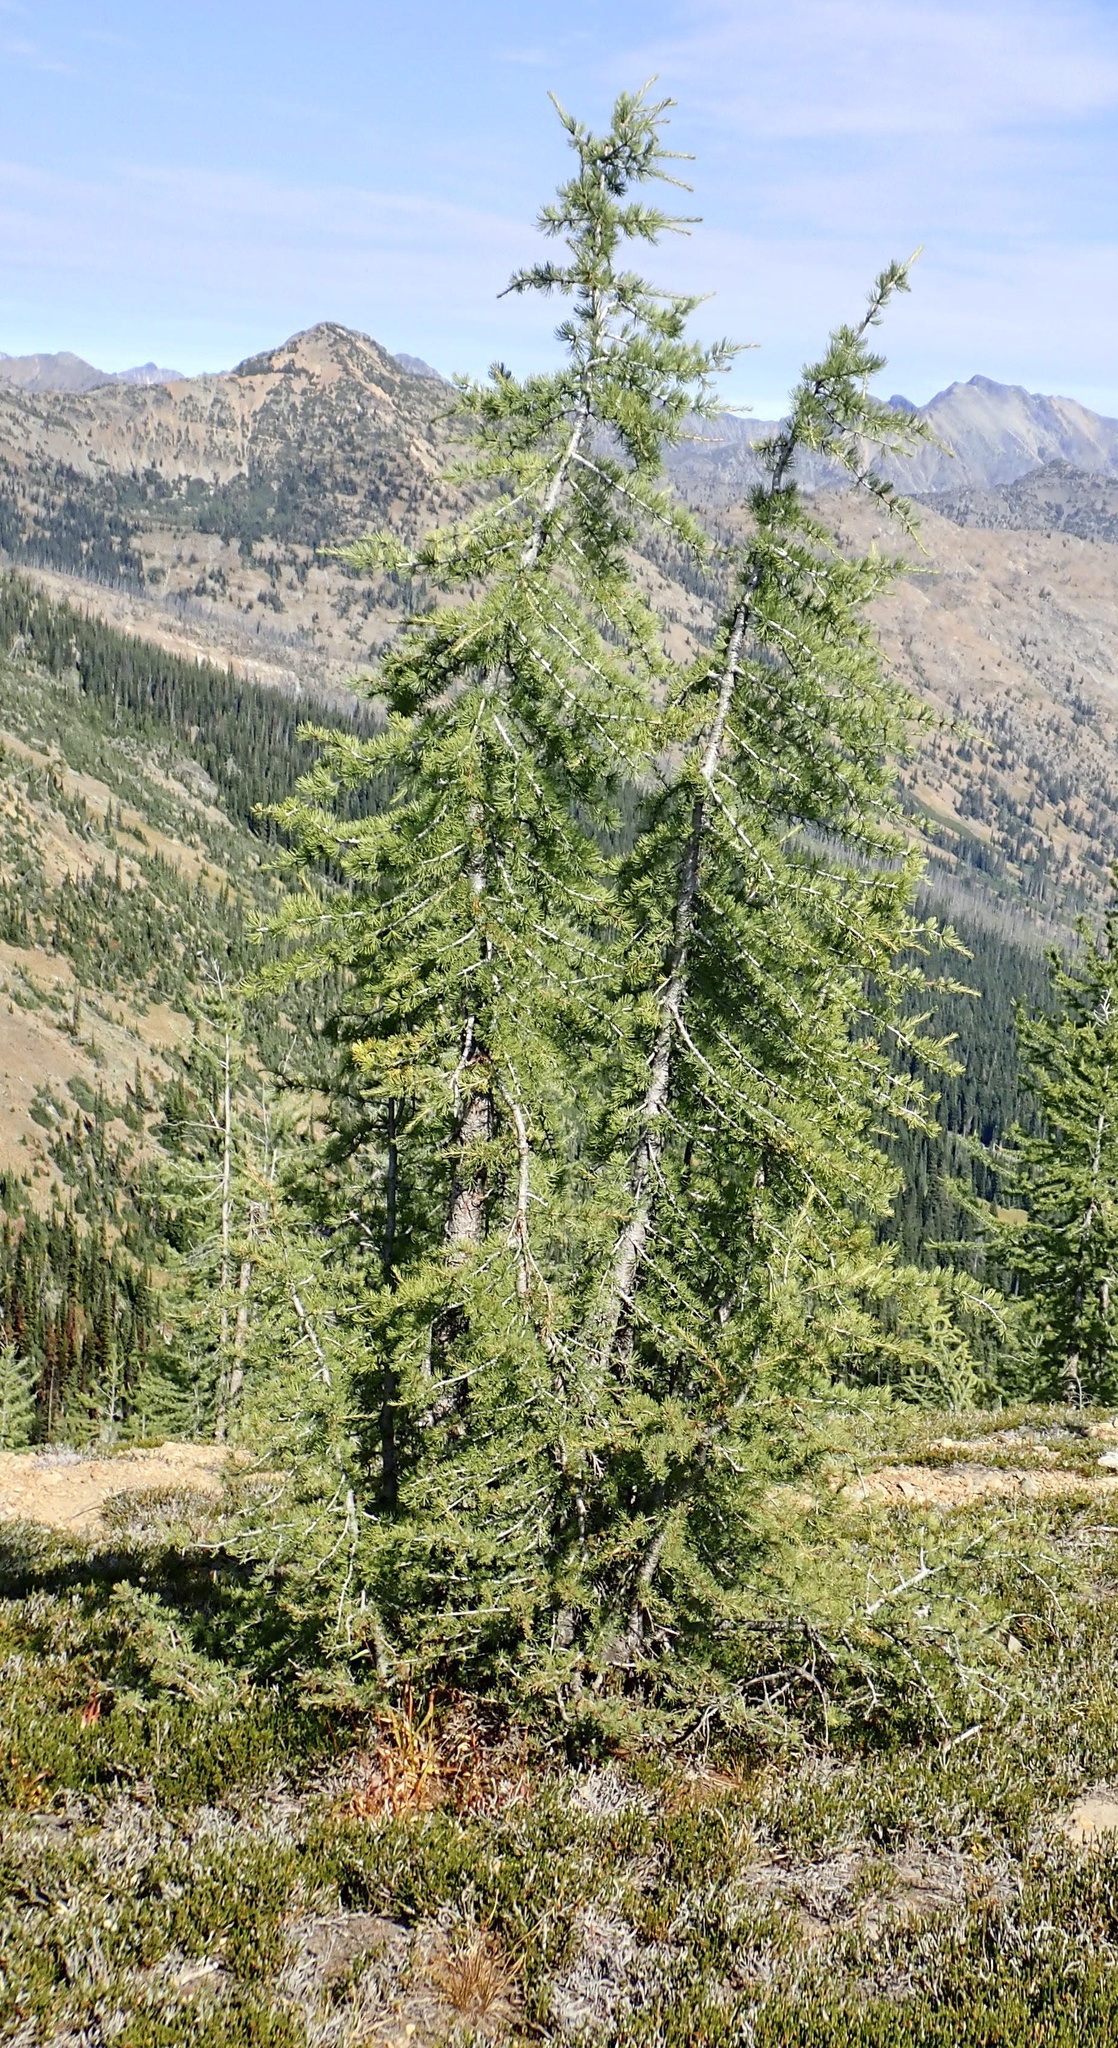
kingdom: Plantae
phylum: Tracheophyta
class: Pinopsida
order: Pinales
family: Pinaceae
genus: Larix
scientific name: Larix lyallii
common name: Alpine larch
